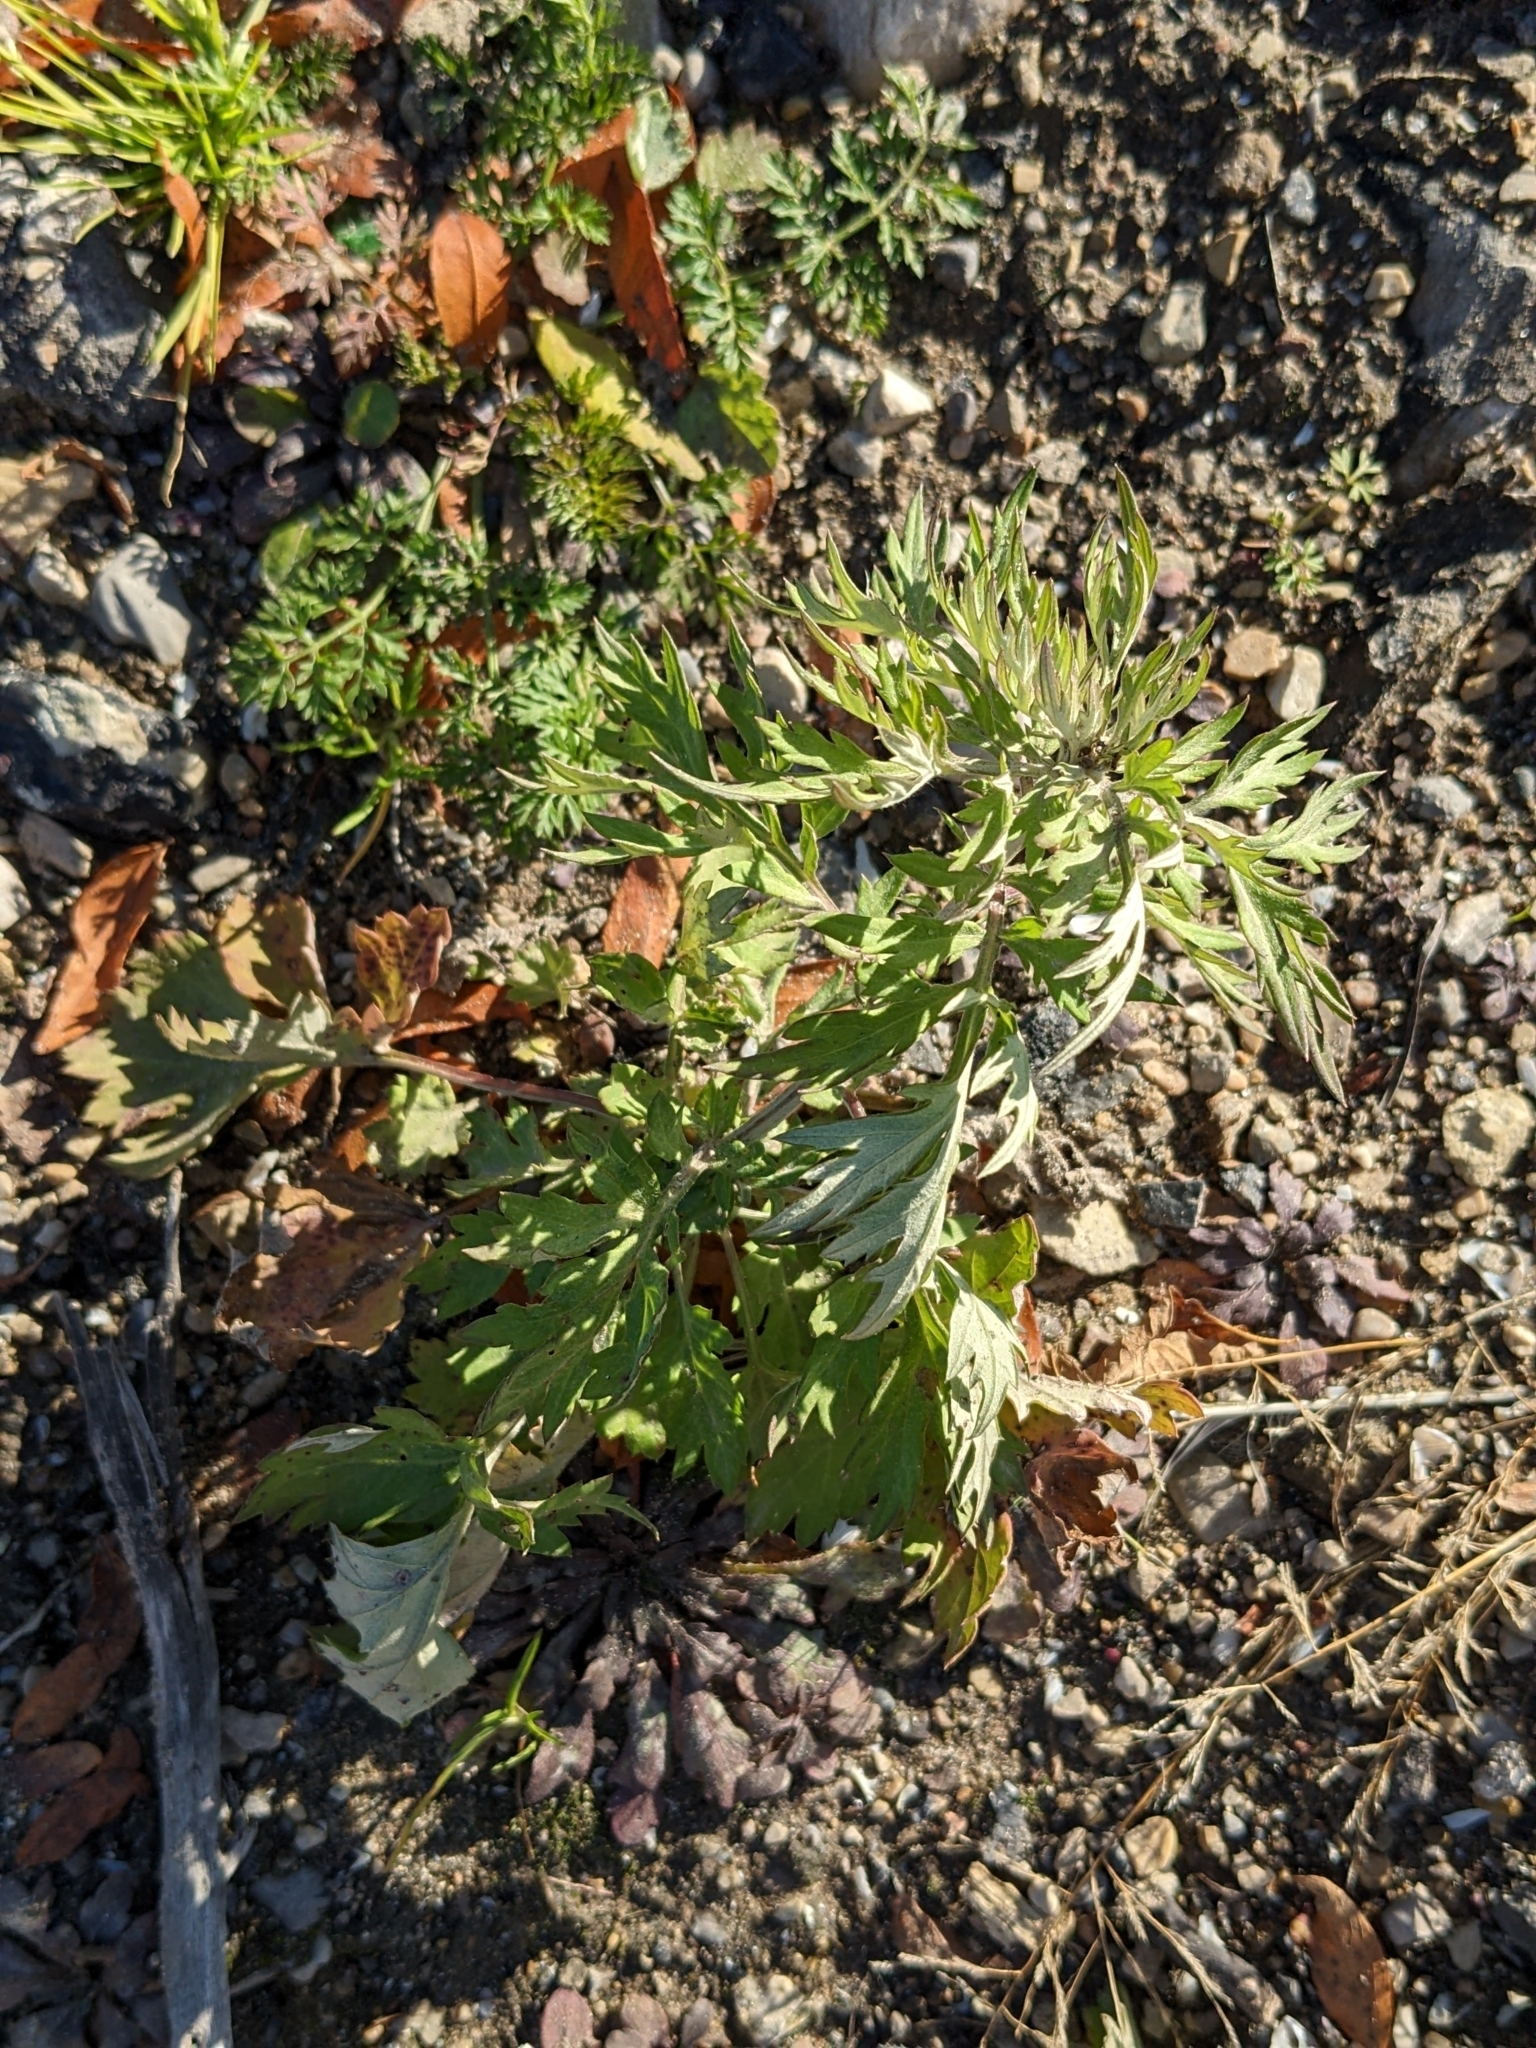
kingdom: Plantae
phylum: Tracheophyta
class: Magnoliopsida
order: Asterales
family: Asteraceae
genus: Artemisia
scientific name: Artemisia vulgaris
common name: Mugwort
